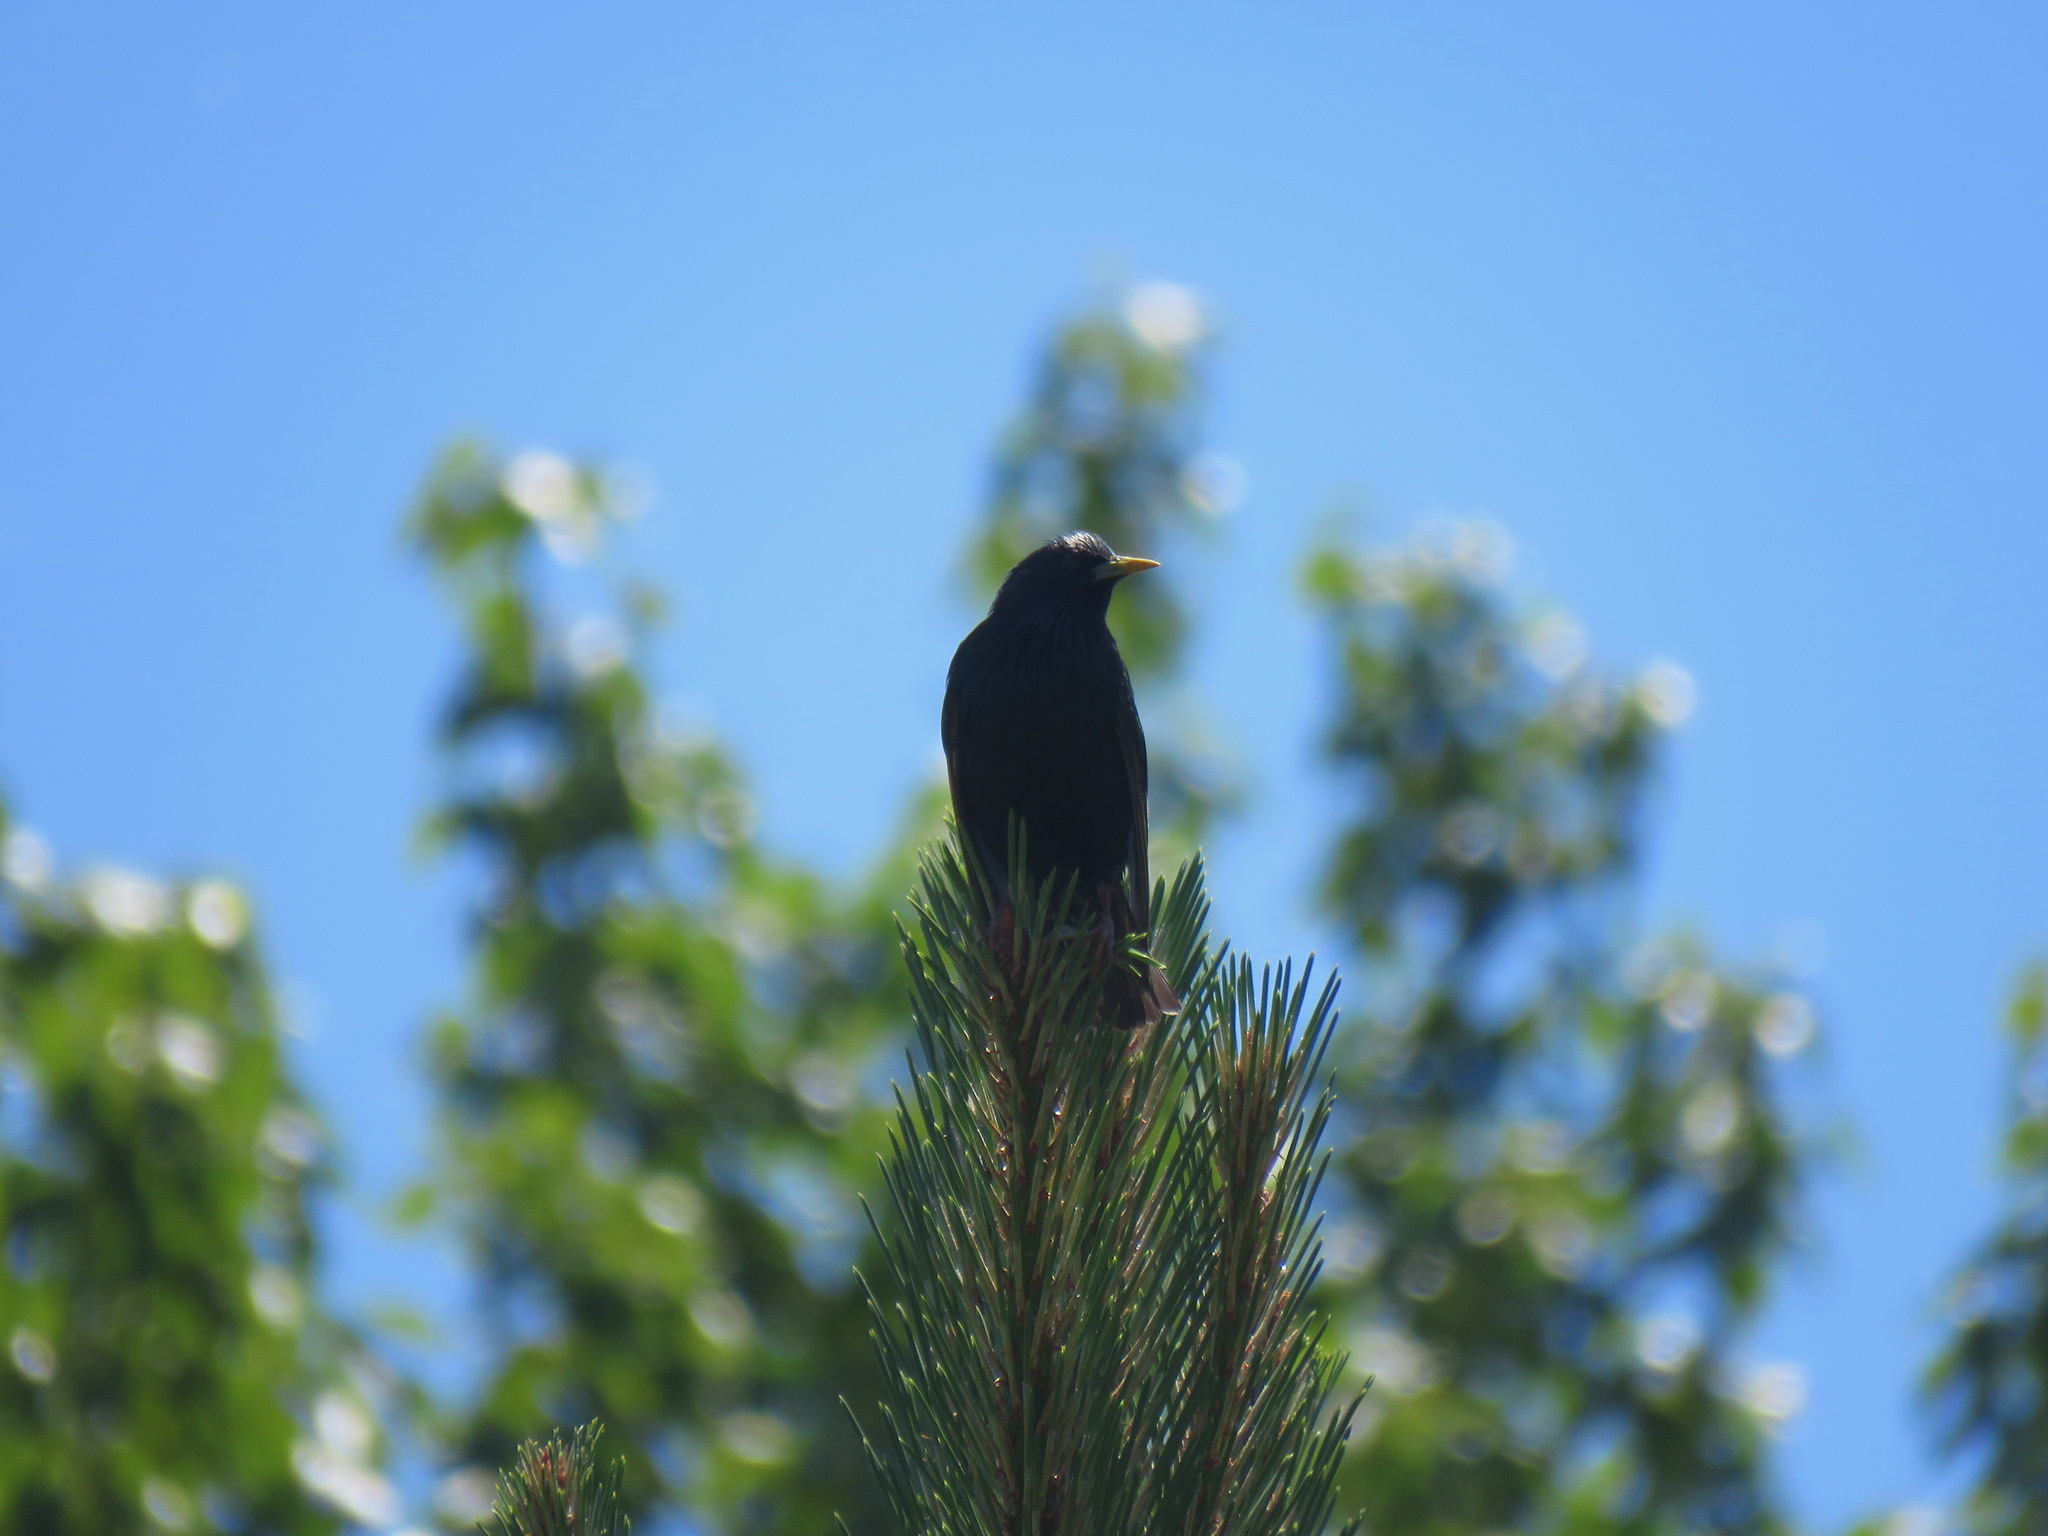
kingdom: Animalia
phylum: Chordata
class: Aves
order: Passeriformes
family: Sturnidae
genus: Sturnus
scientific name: Sturnus vulgaris
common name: Common starling
